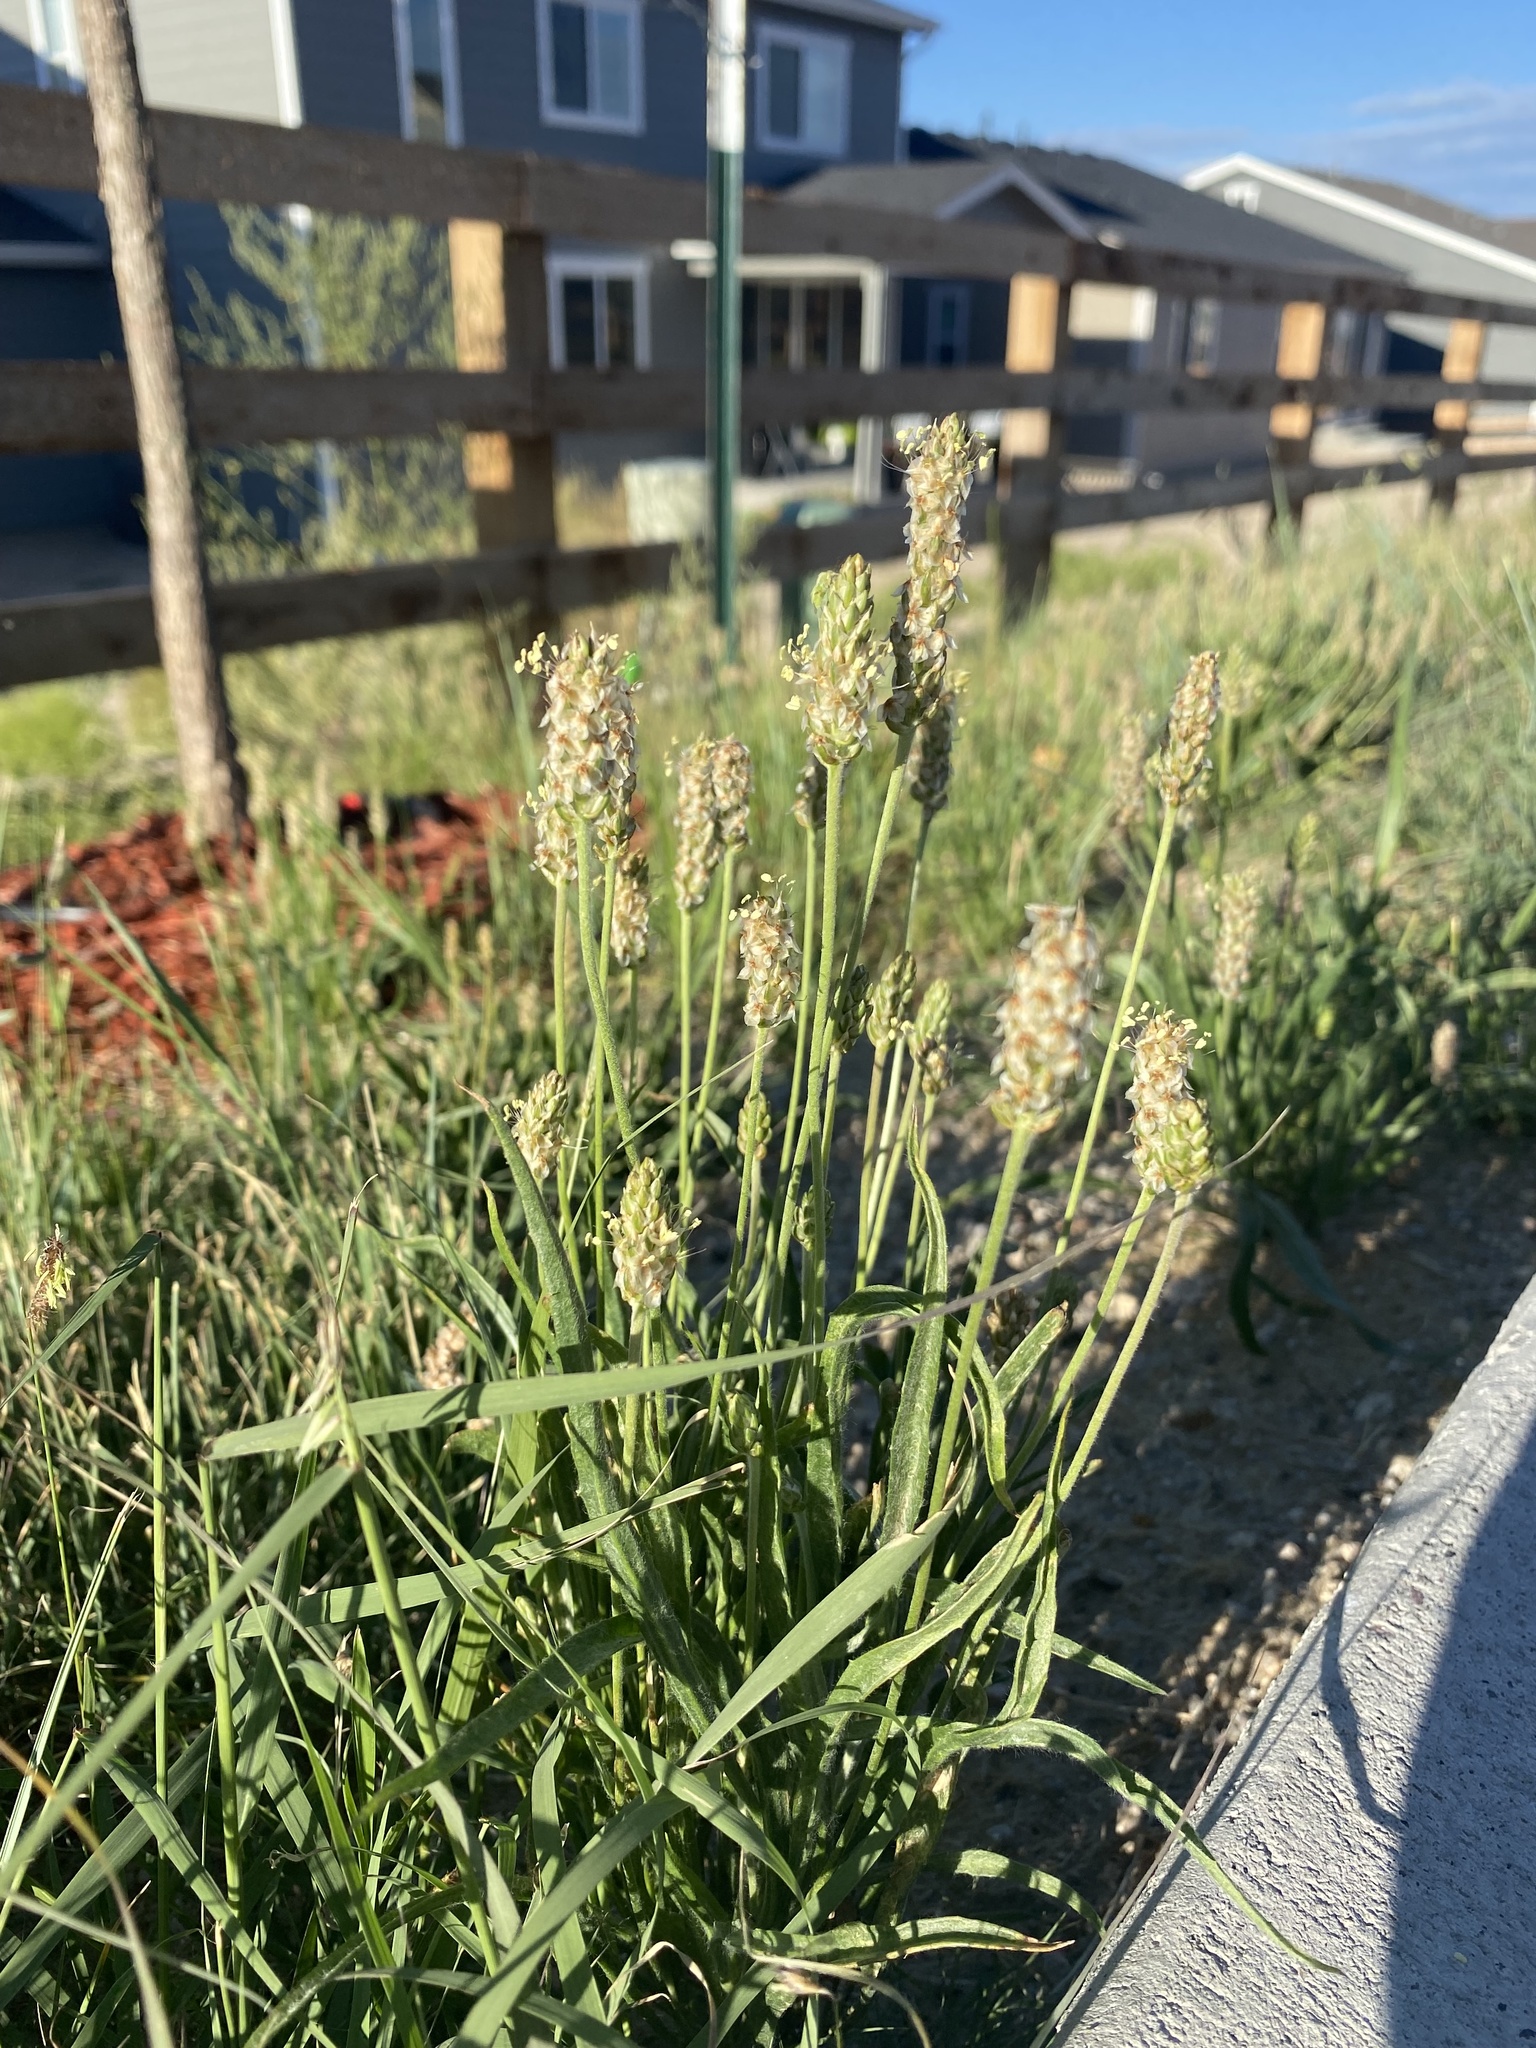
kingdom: Plantae
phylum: Tracheophyta
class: Magnoliopsida
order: Lamiales
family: Plantaginaceae
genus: Plantago
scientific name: Plantago lanceolata
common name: Ribwort plantain
